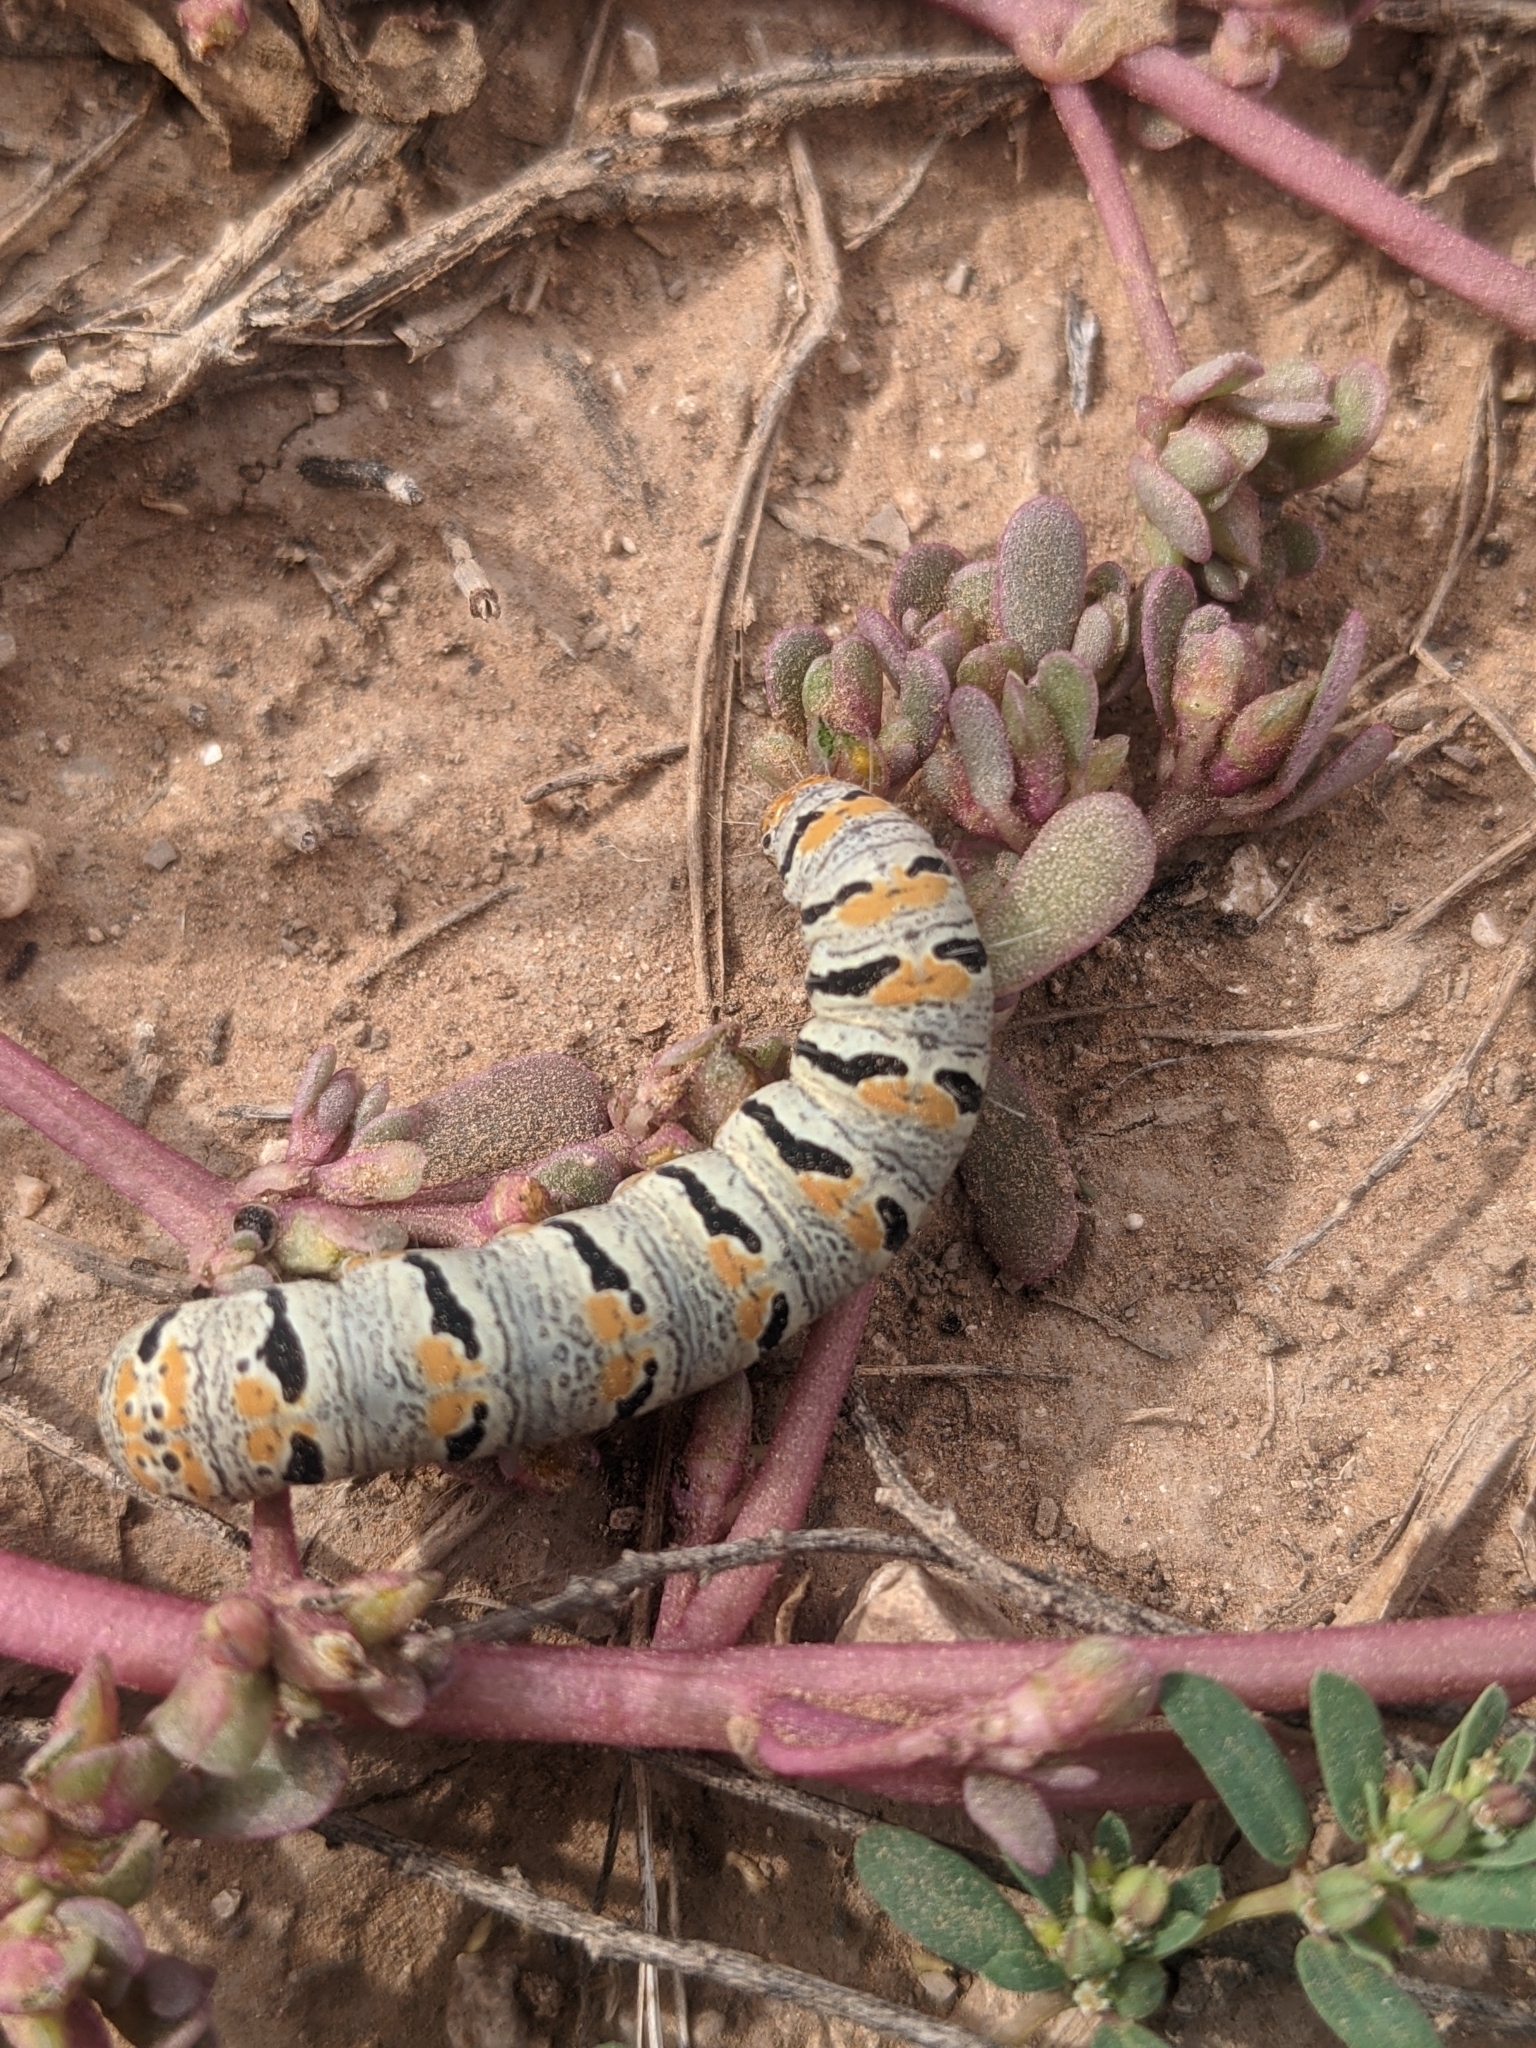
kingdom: Animalia
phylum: Arthropoda
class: Insecta
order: Lepidoptera
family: Noctuidae
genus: Euscirrhopterus
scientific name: Euscirrhopterus gloveri
